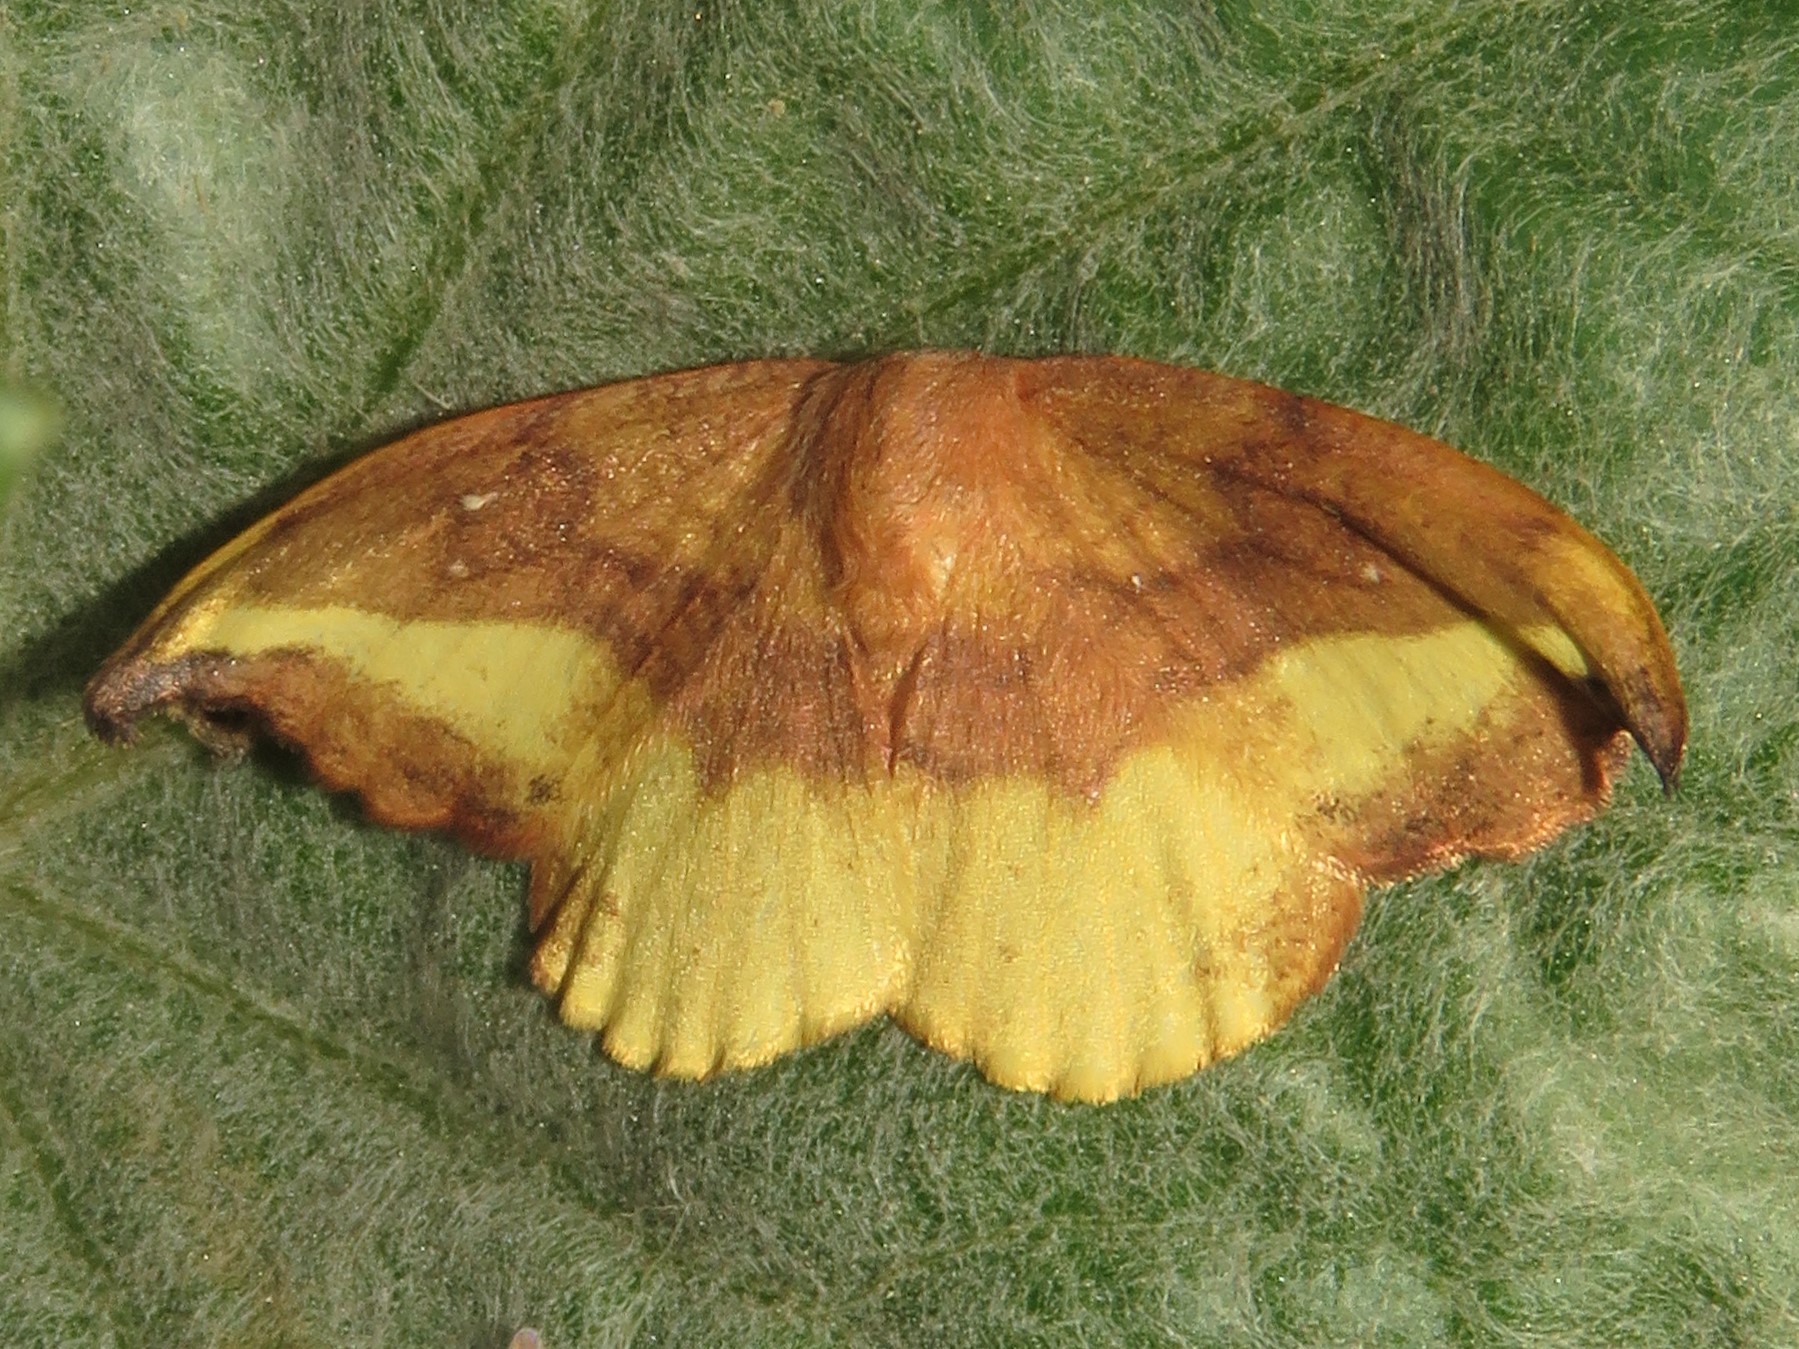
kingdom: Animalia
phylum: Arthropoda
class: Insecta
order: Lepidoptera
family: Drepanidae
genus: Oreta
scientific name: Oreta rosea
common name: Rose hooktip
